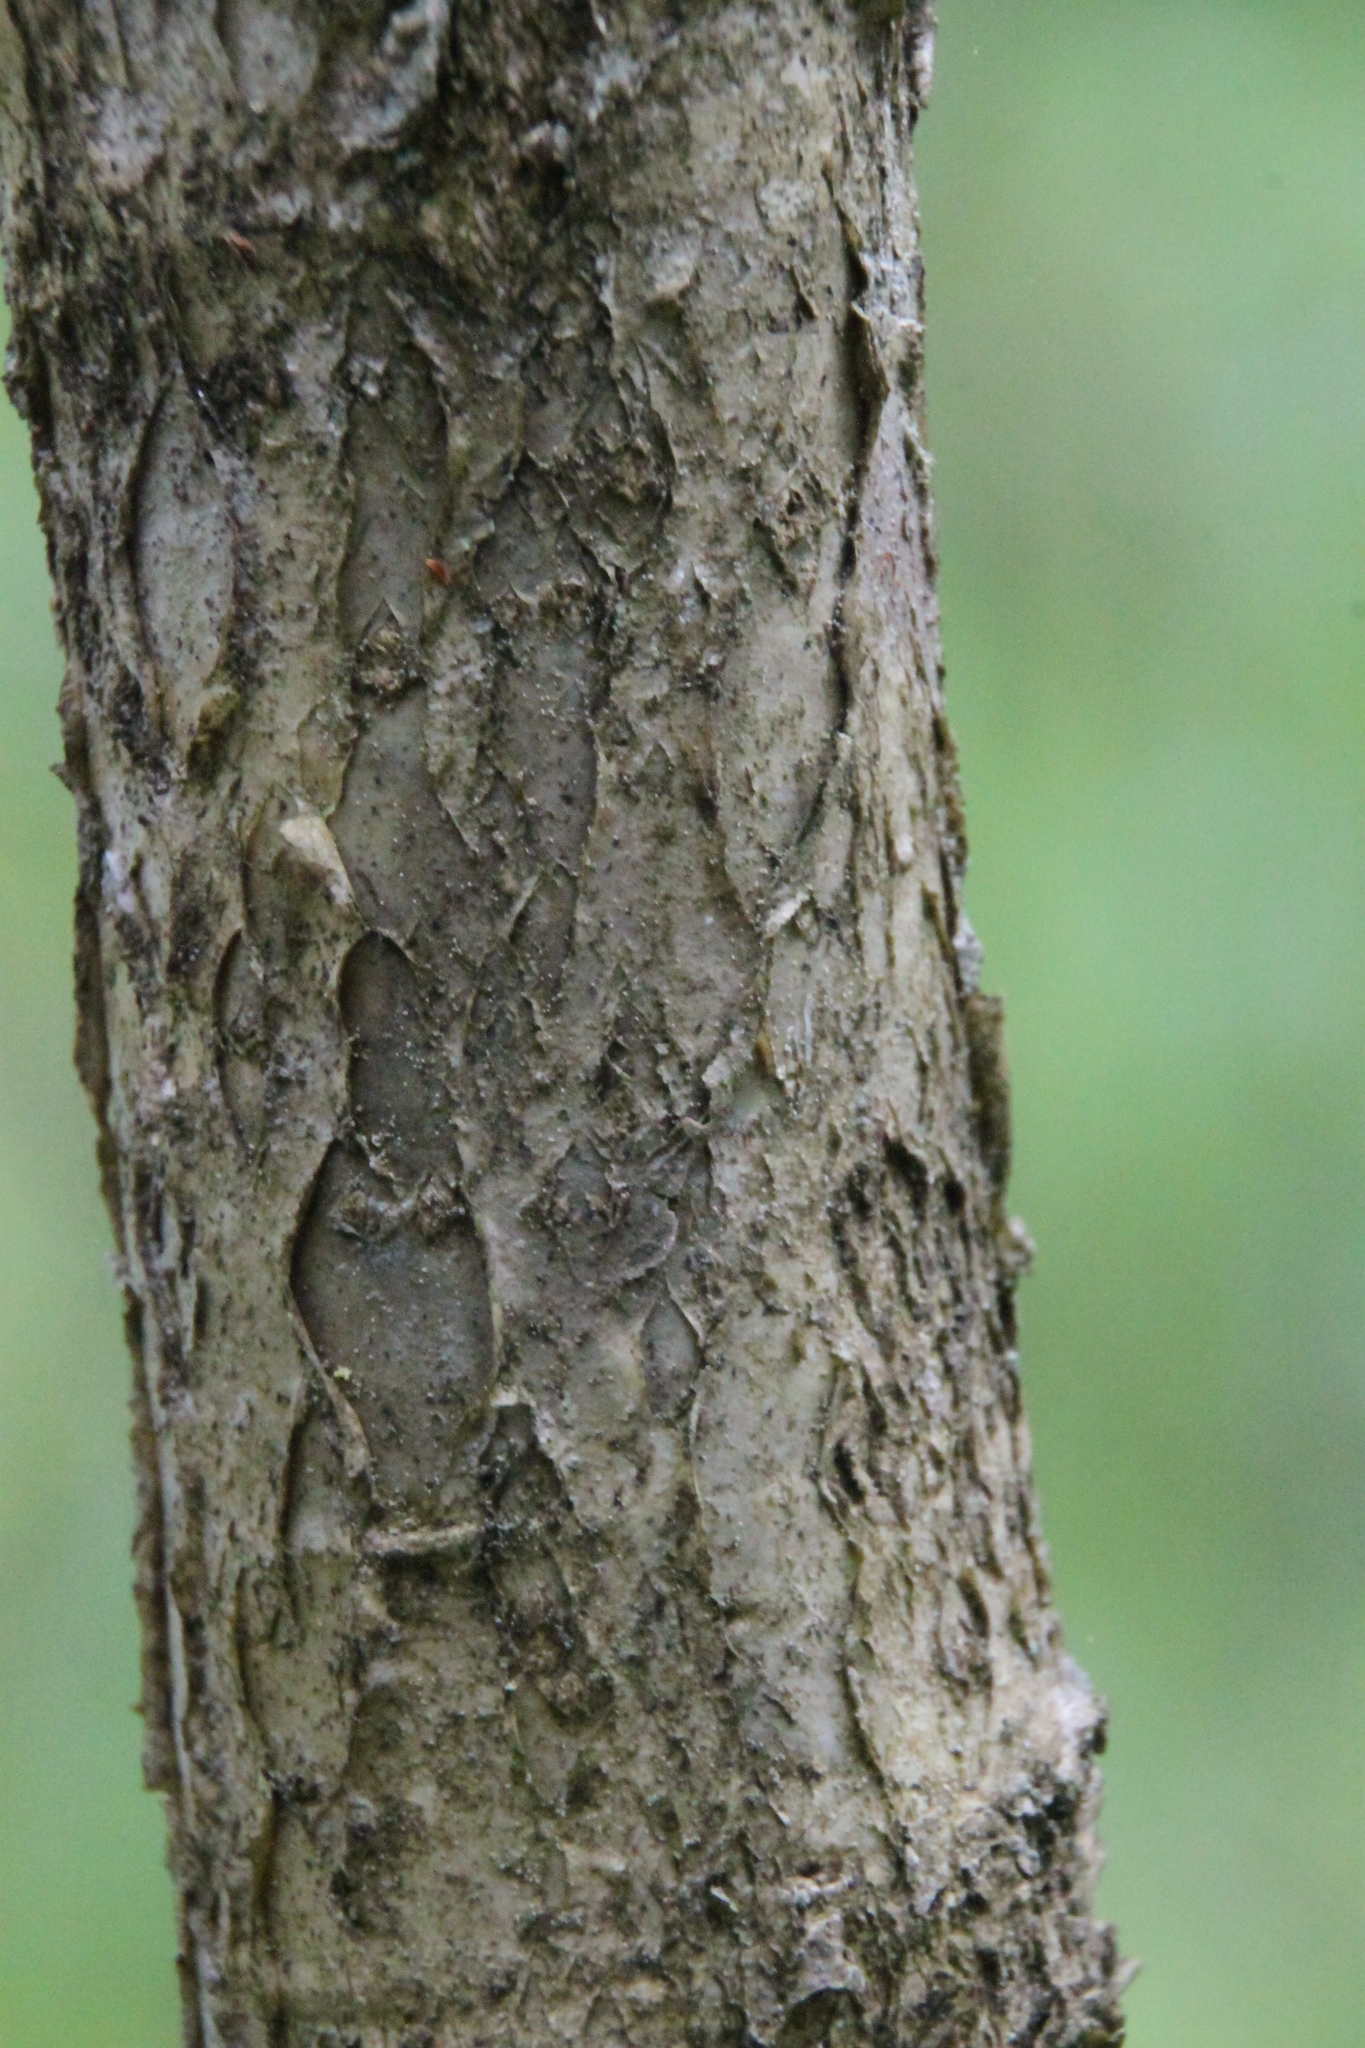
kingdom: Plantae
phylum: Tracheophyta
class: Magnoliopsida
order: Fagales
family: Fagaceae
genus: Quercus
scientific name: Quercus robur
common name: Pedunculate oak
